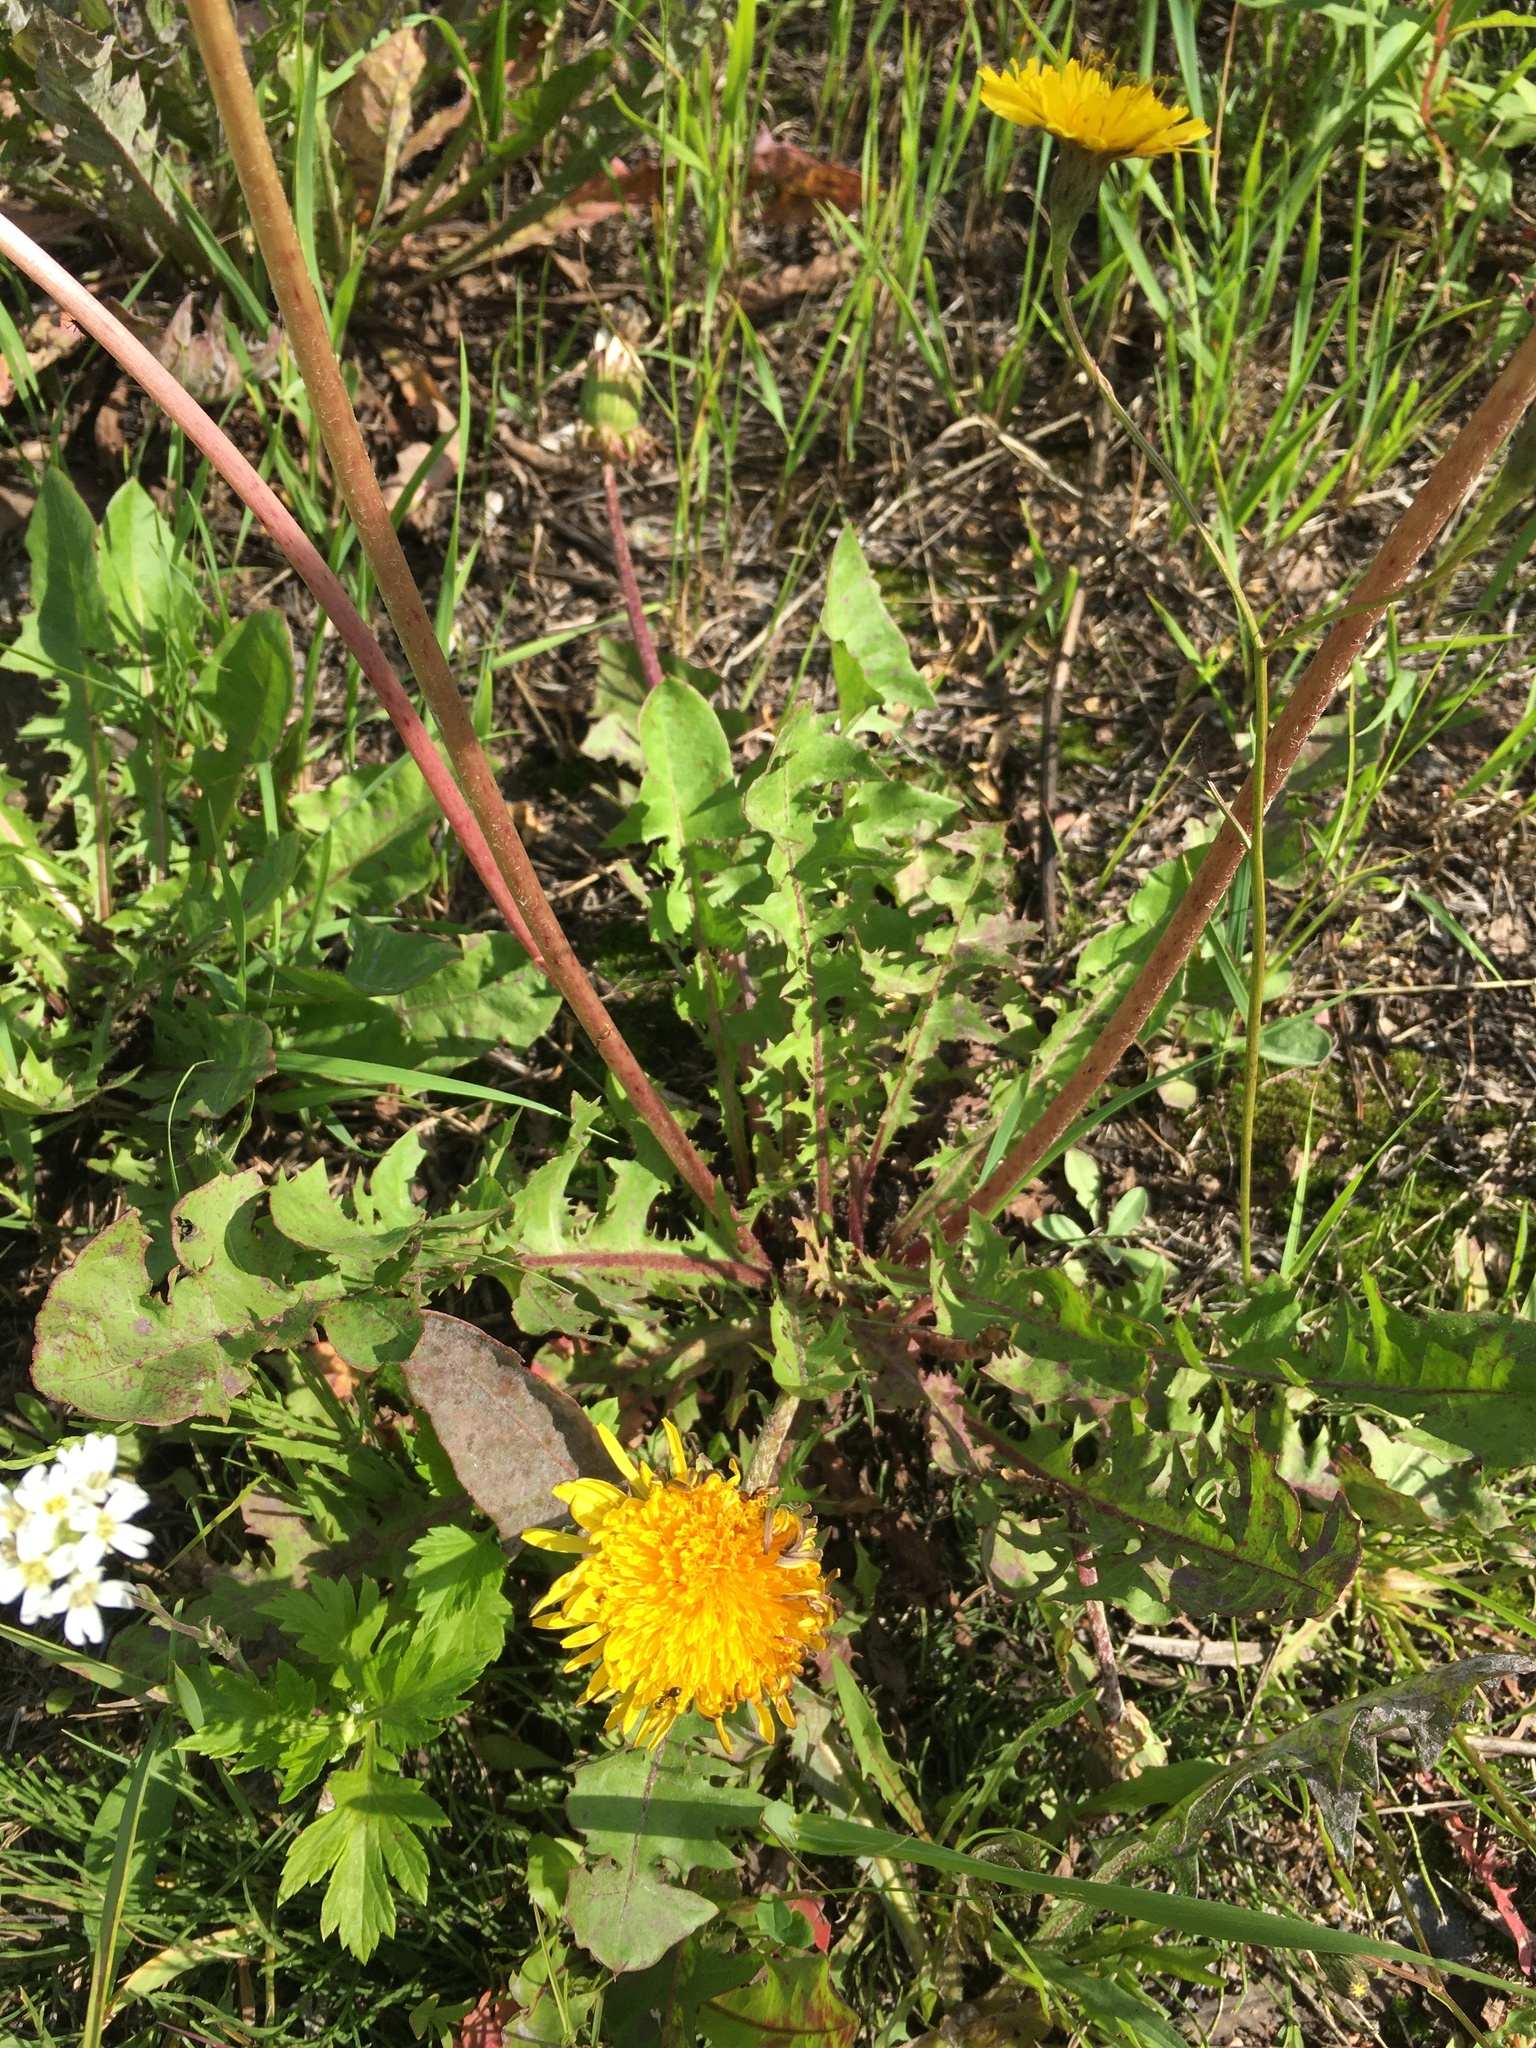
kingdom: Plantae
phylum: Tracheophyta
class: Magnoliopsida
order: Asterales
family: Asteraceae
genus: Taraxacum
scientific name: Taraxacum officinale
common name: Common dandelion
